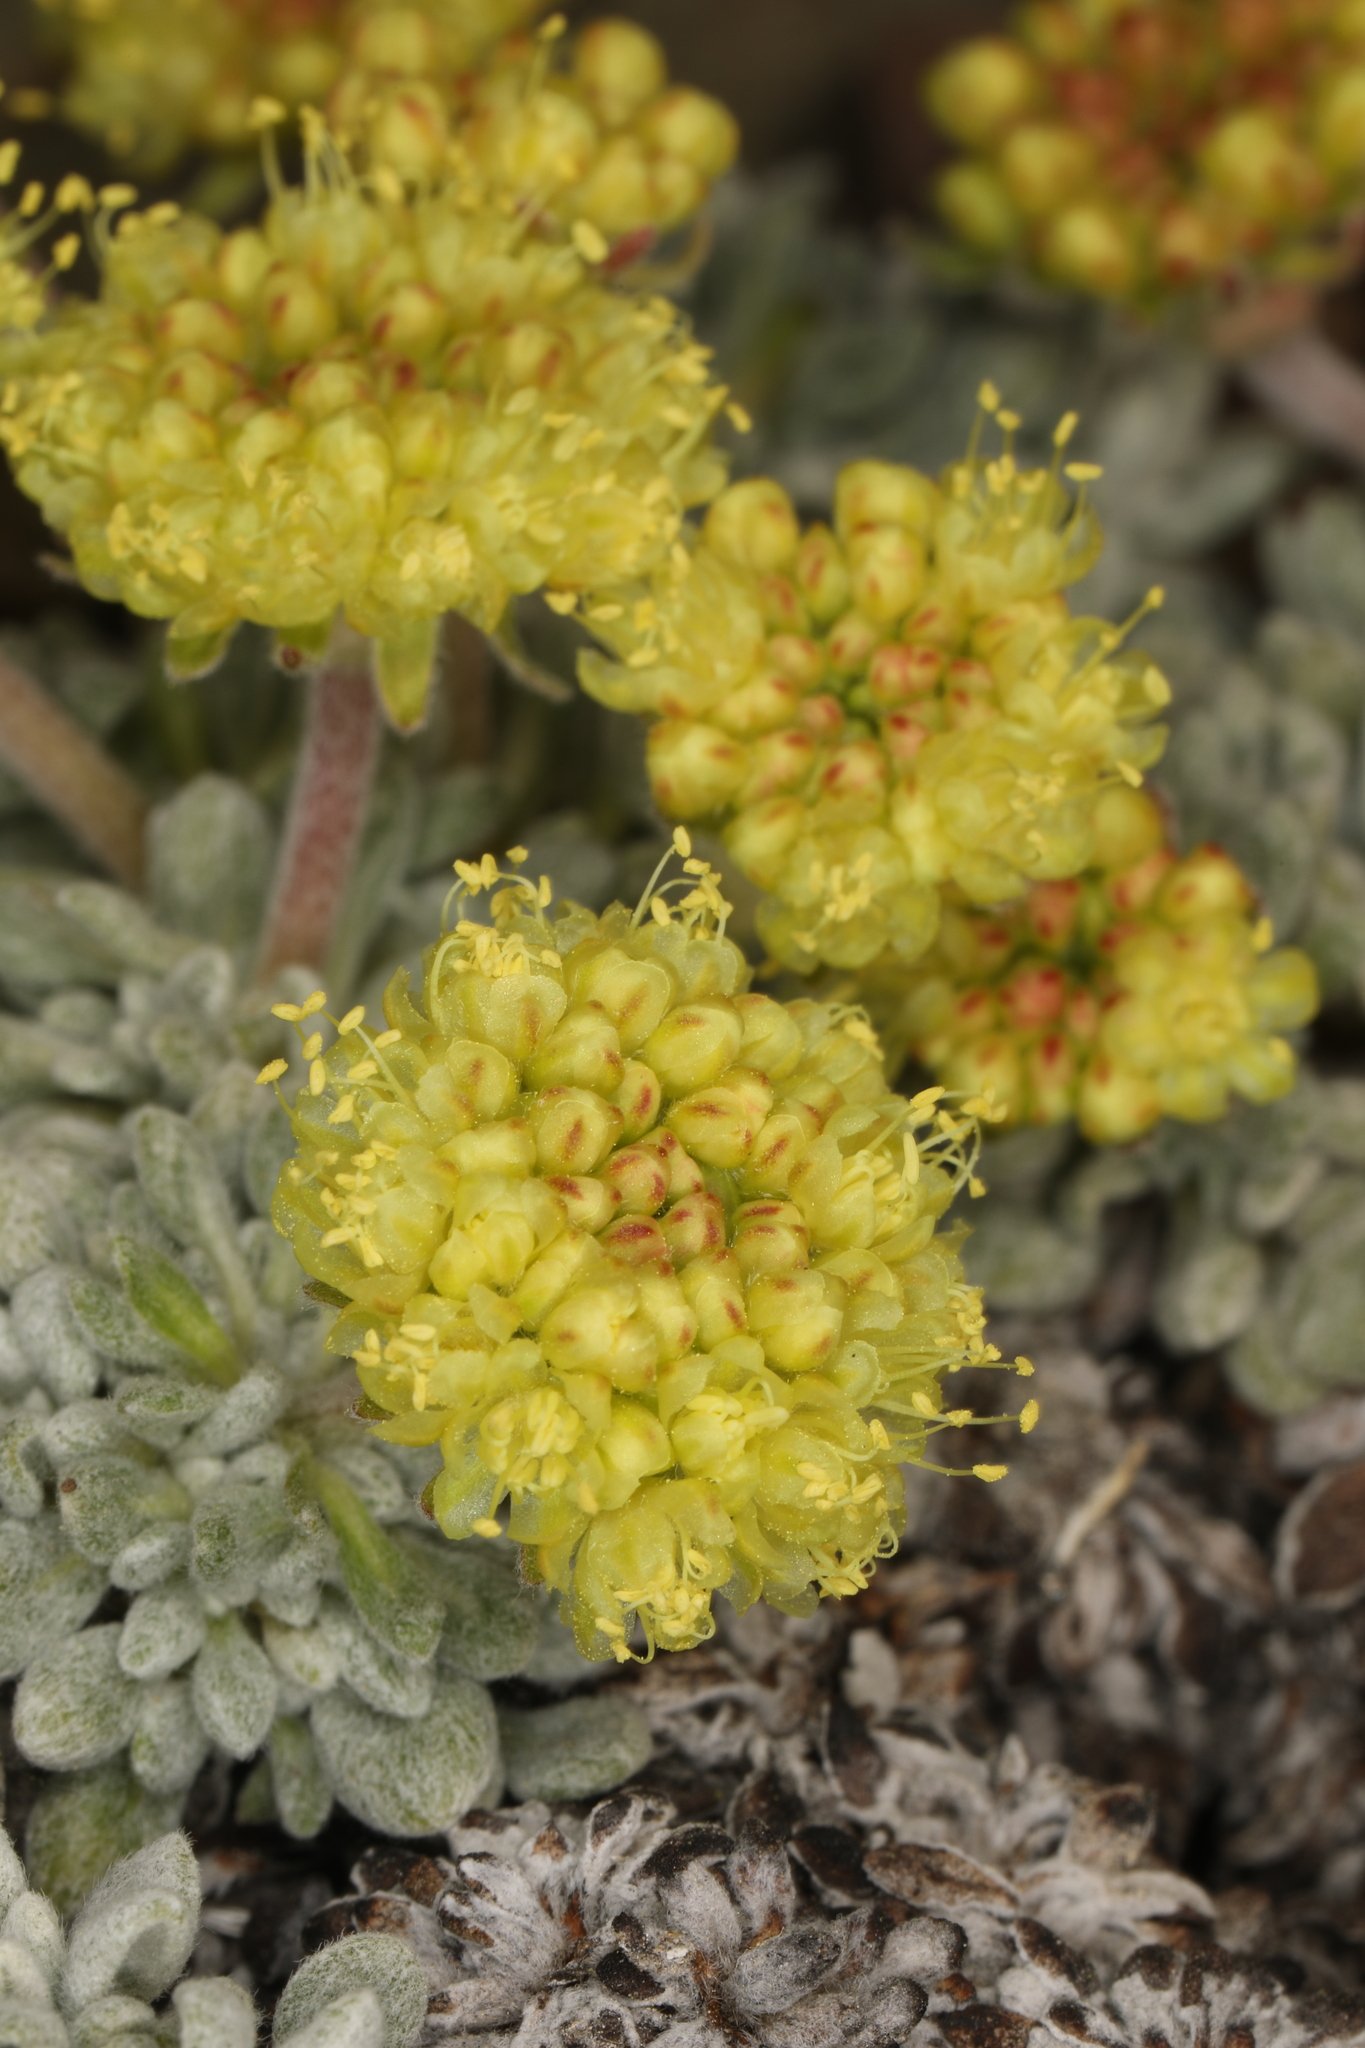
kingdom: Plantae
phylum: Tracheophyta
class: Magnoliopsida
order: Caryophyllales
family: Polygonaceae
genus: Eriogonum
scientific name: Eriogonum caespitosum
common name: Matted wild buckwheat
